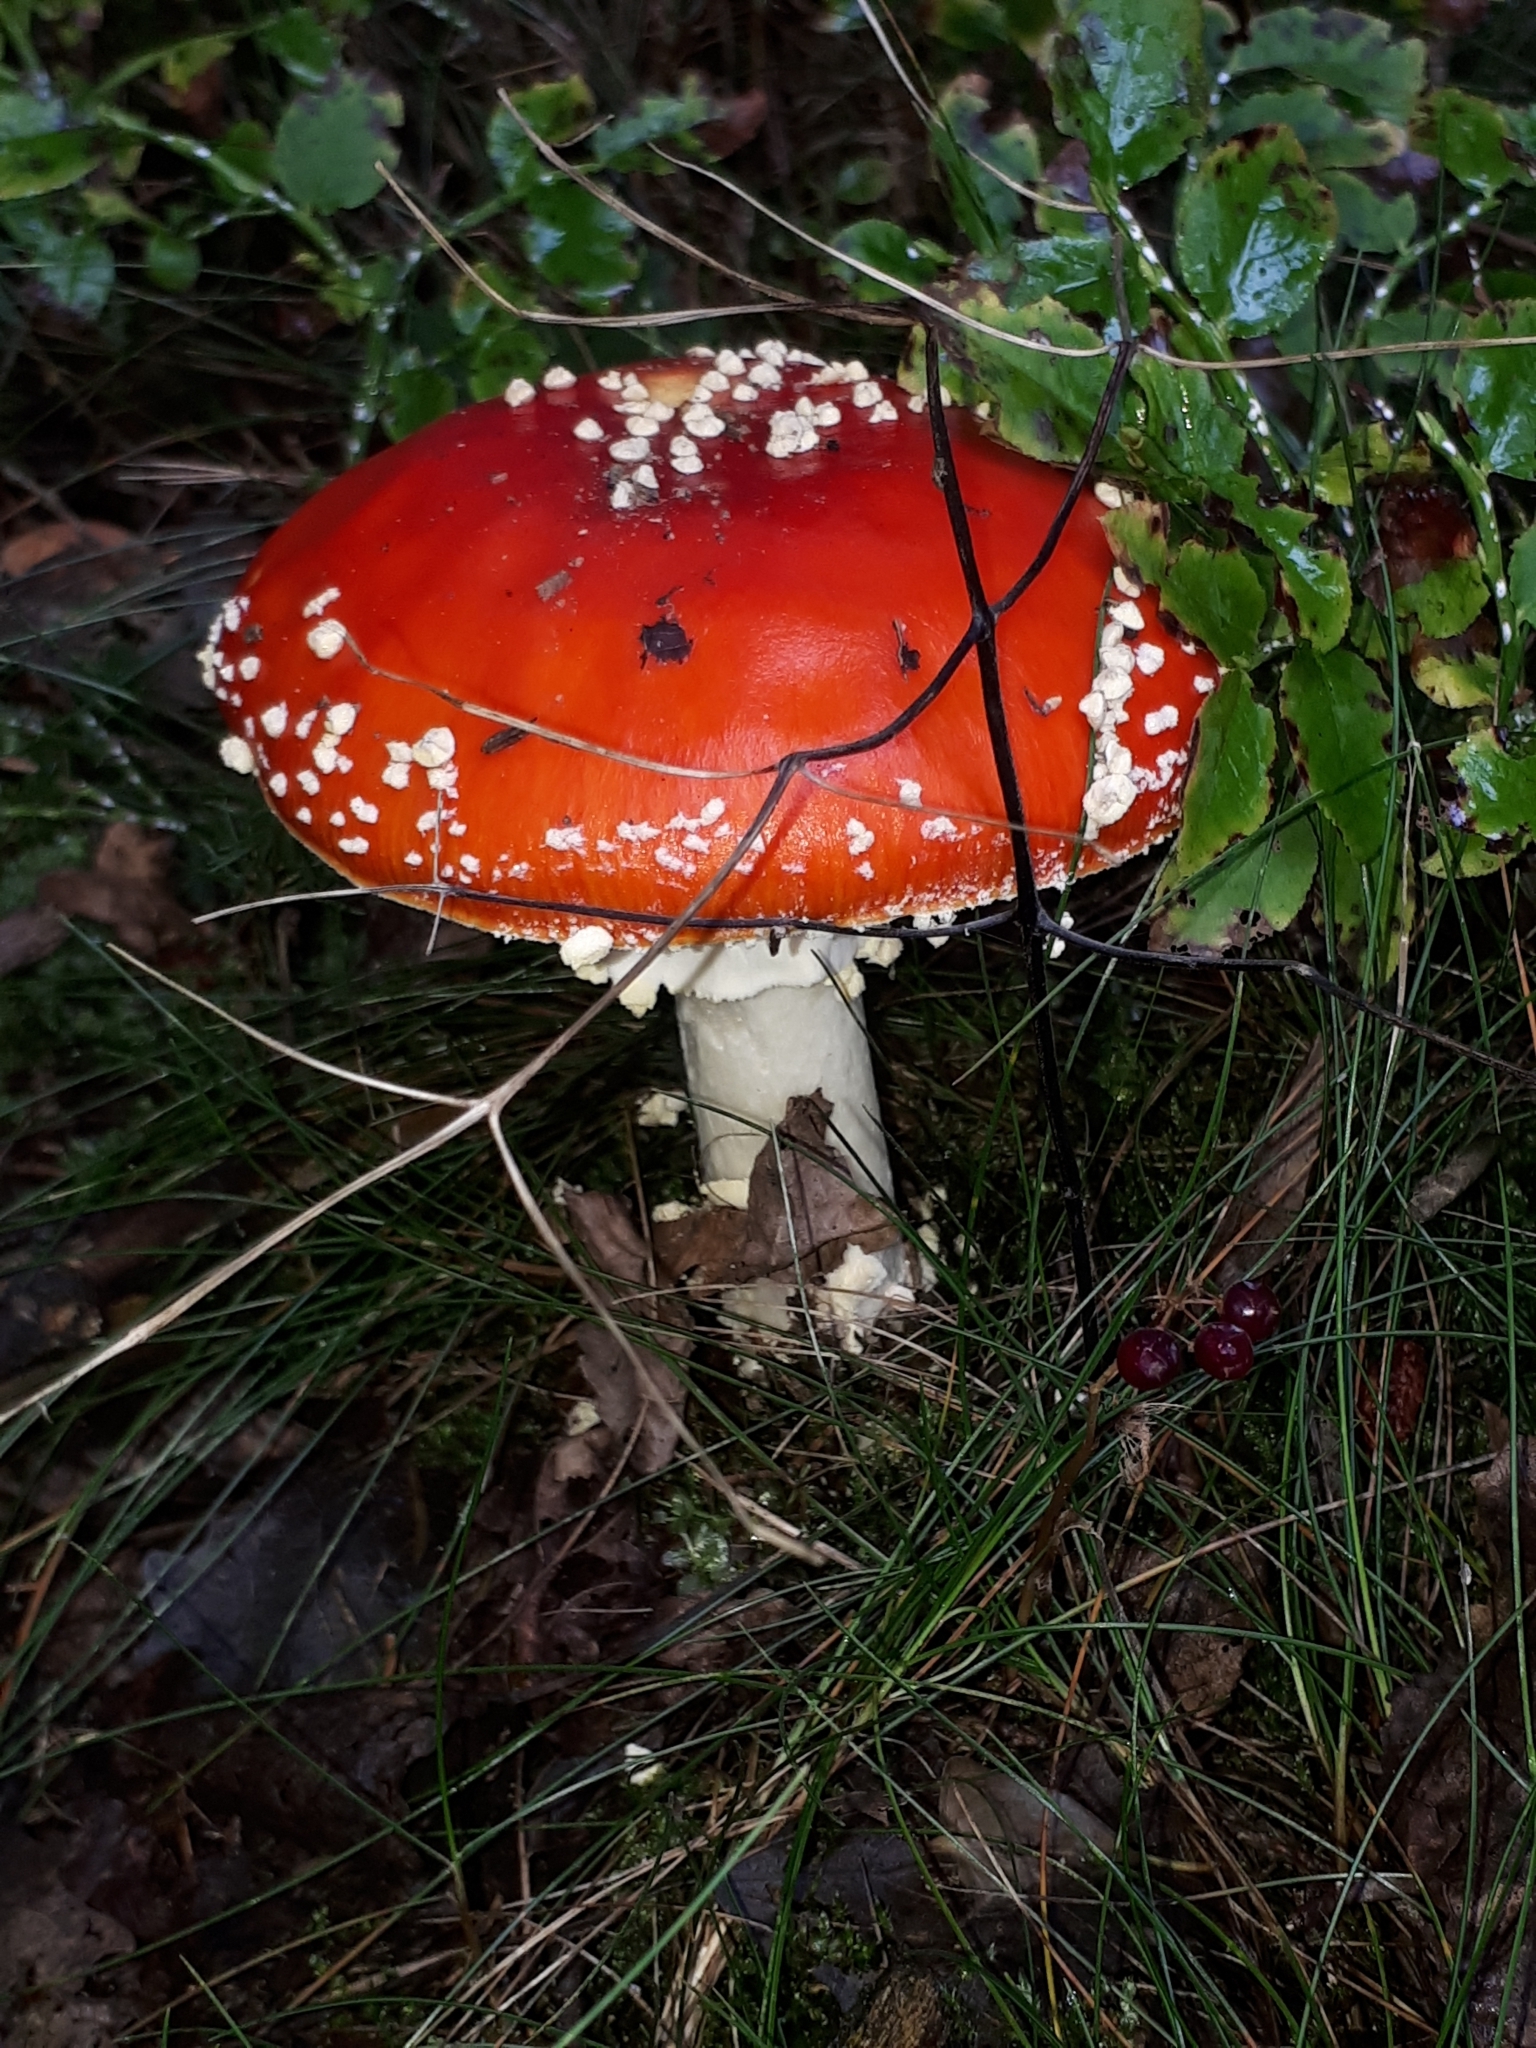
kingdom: Fungi
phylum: Basidiomycota
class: Agaricomycetes
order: Agaricales
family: Amanitaceae
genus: Amanita
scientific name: Amanita muscaria
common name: Fly agaric
